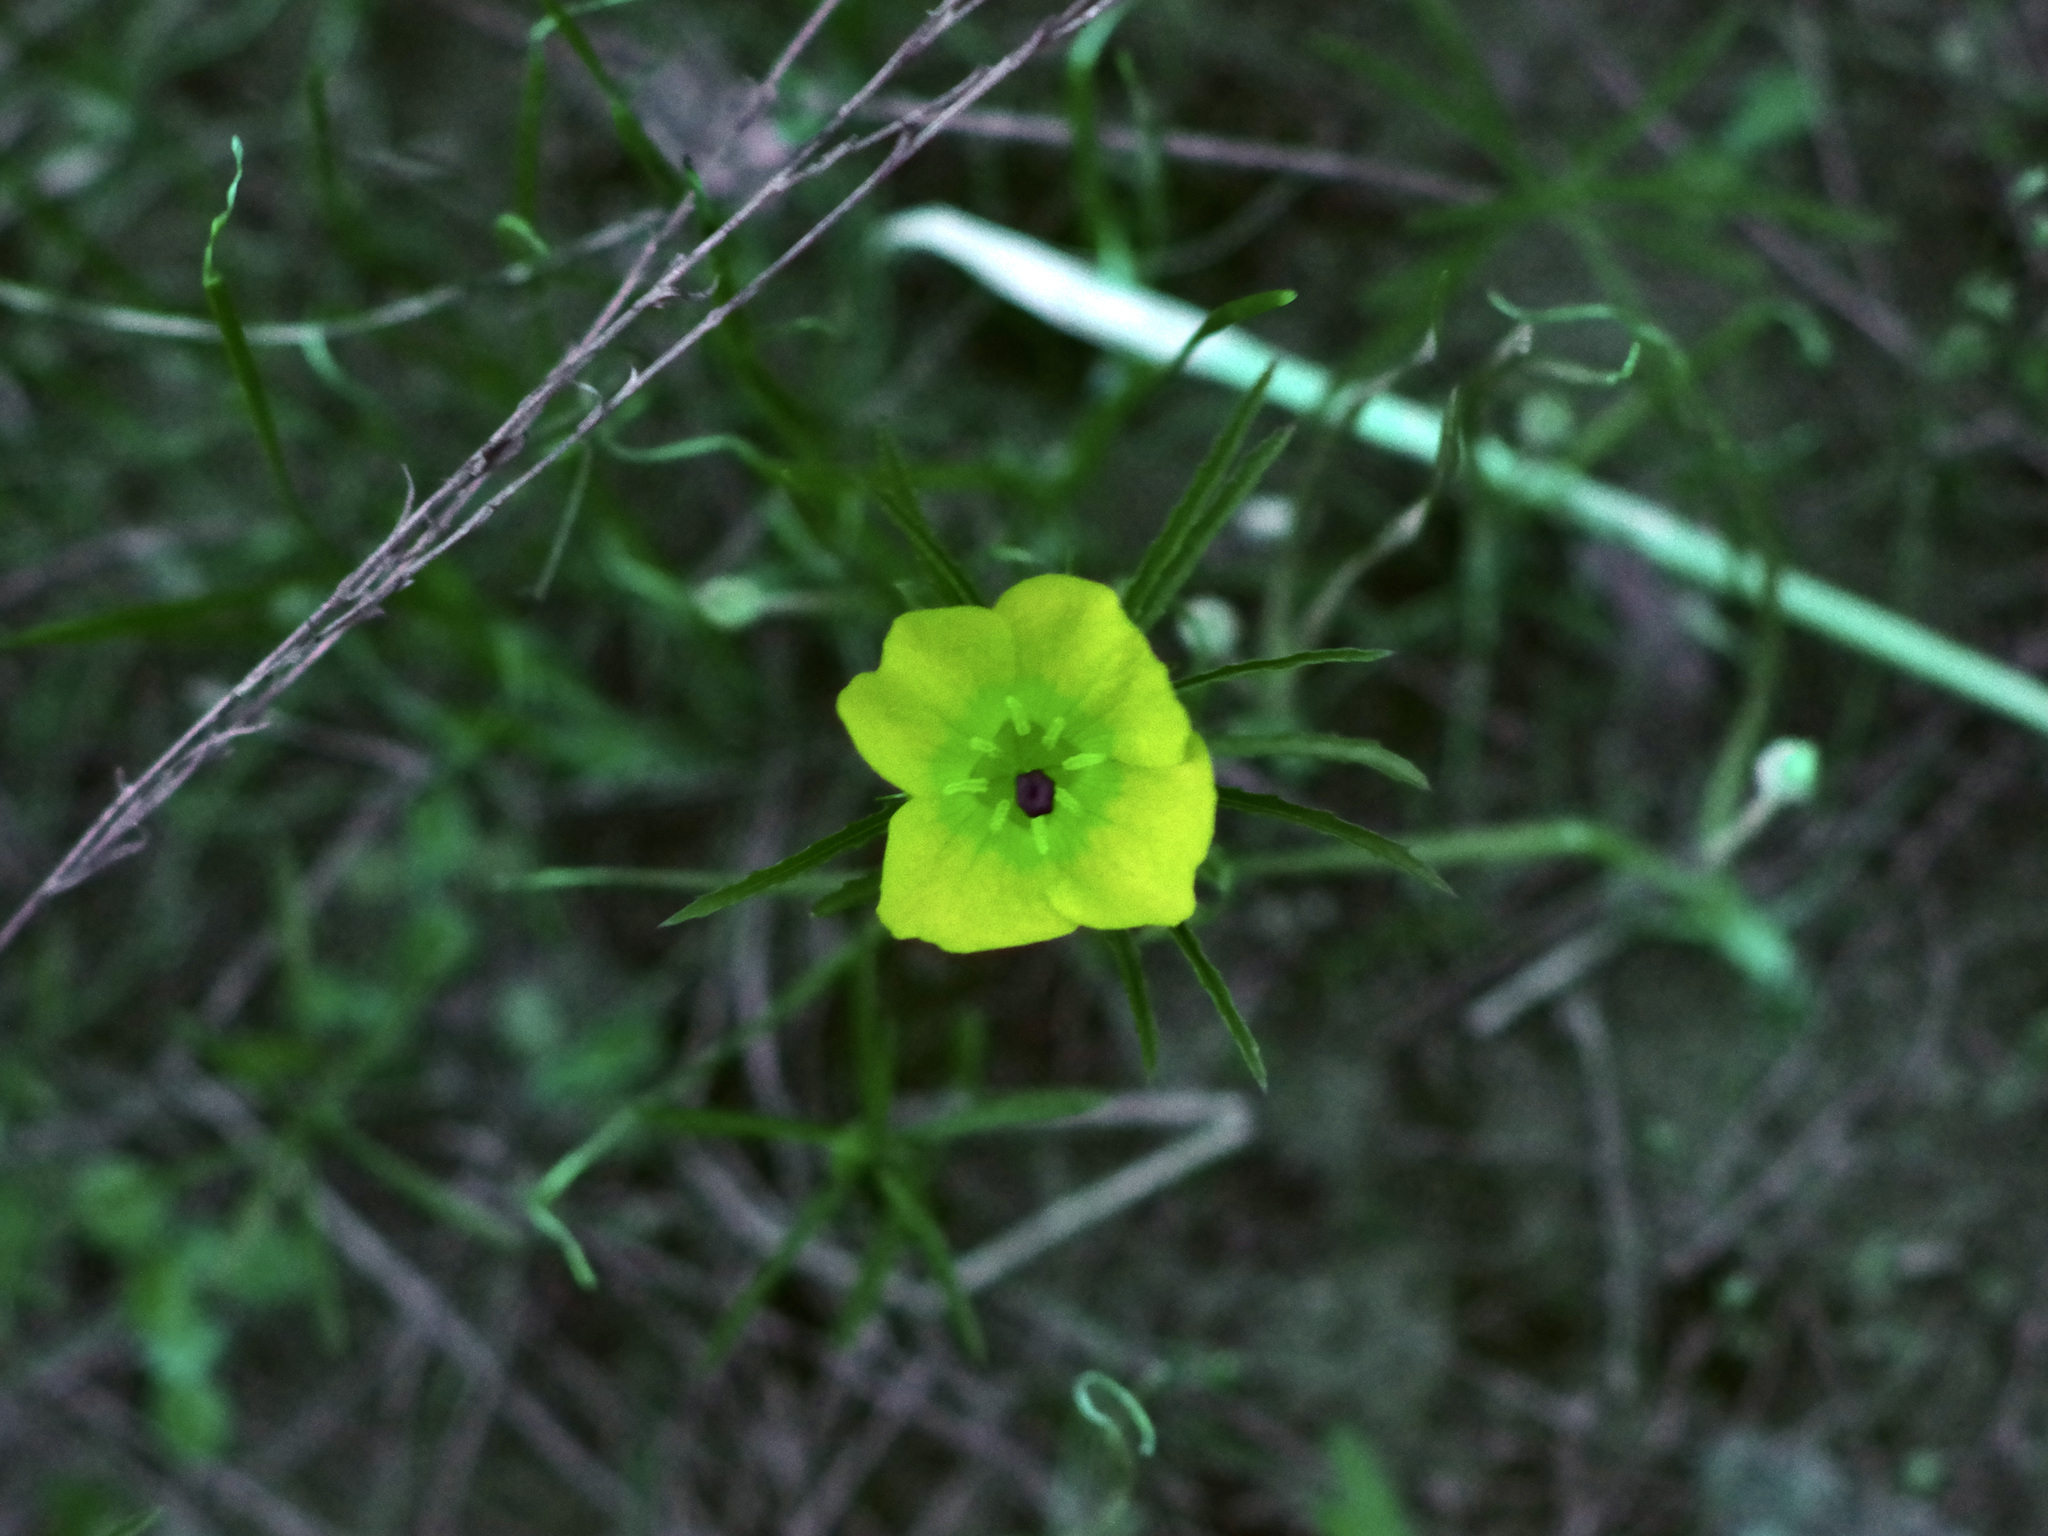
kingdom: Plantae
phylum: Tracheophyta
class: Magnoliopsida
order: Myrtales
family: Onagraceae
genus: Oenothera
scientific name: Oenothera
